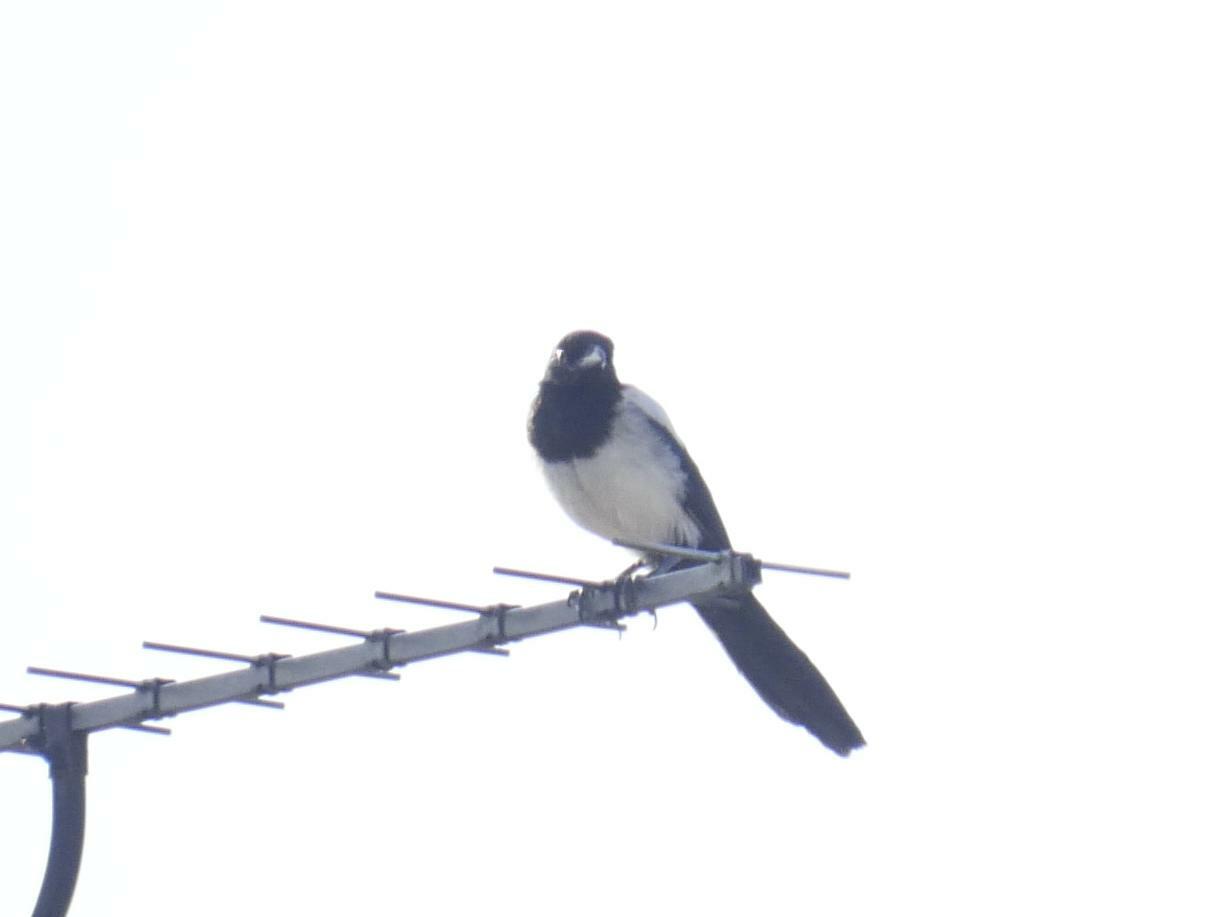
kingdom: Animalia
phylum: Chordata
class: Aves
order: Passeriformes
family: Corvidae
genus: Pica
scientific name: Pica pica
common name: Eurasian magpie
